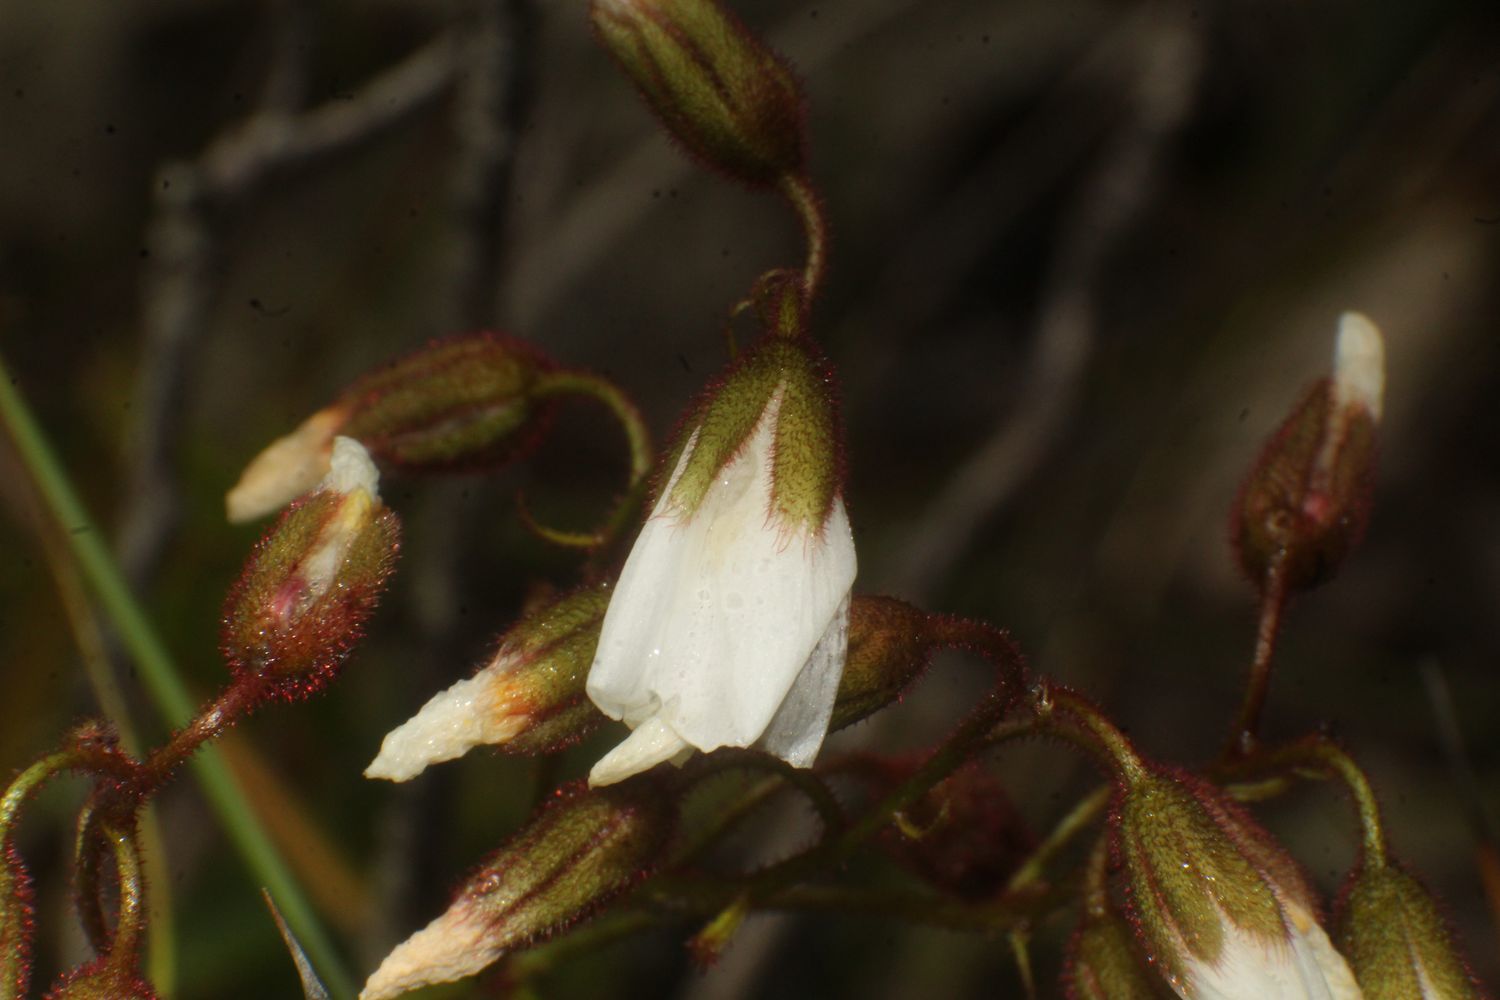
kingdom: Plantae
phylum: Tracheophyta
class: Magnoliopsida
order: Caryophyllales
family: Droseraceae
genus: Drosera
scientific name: Drosera macrantha
